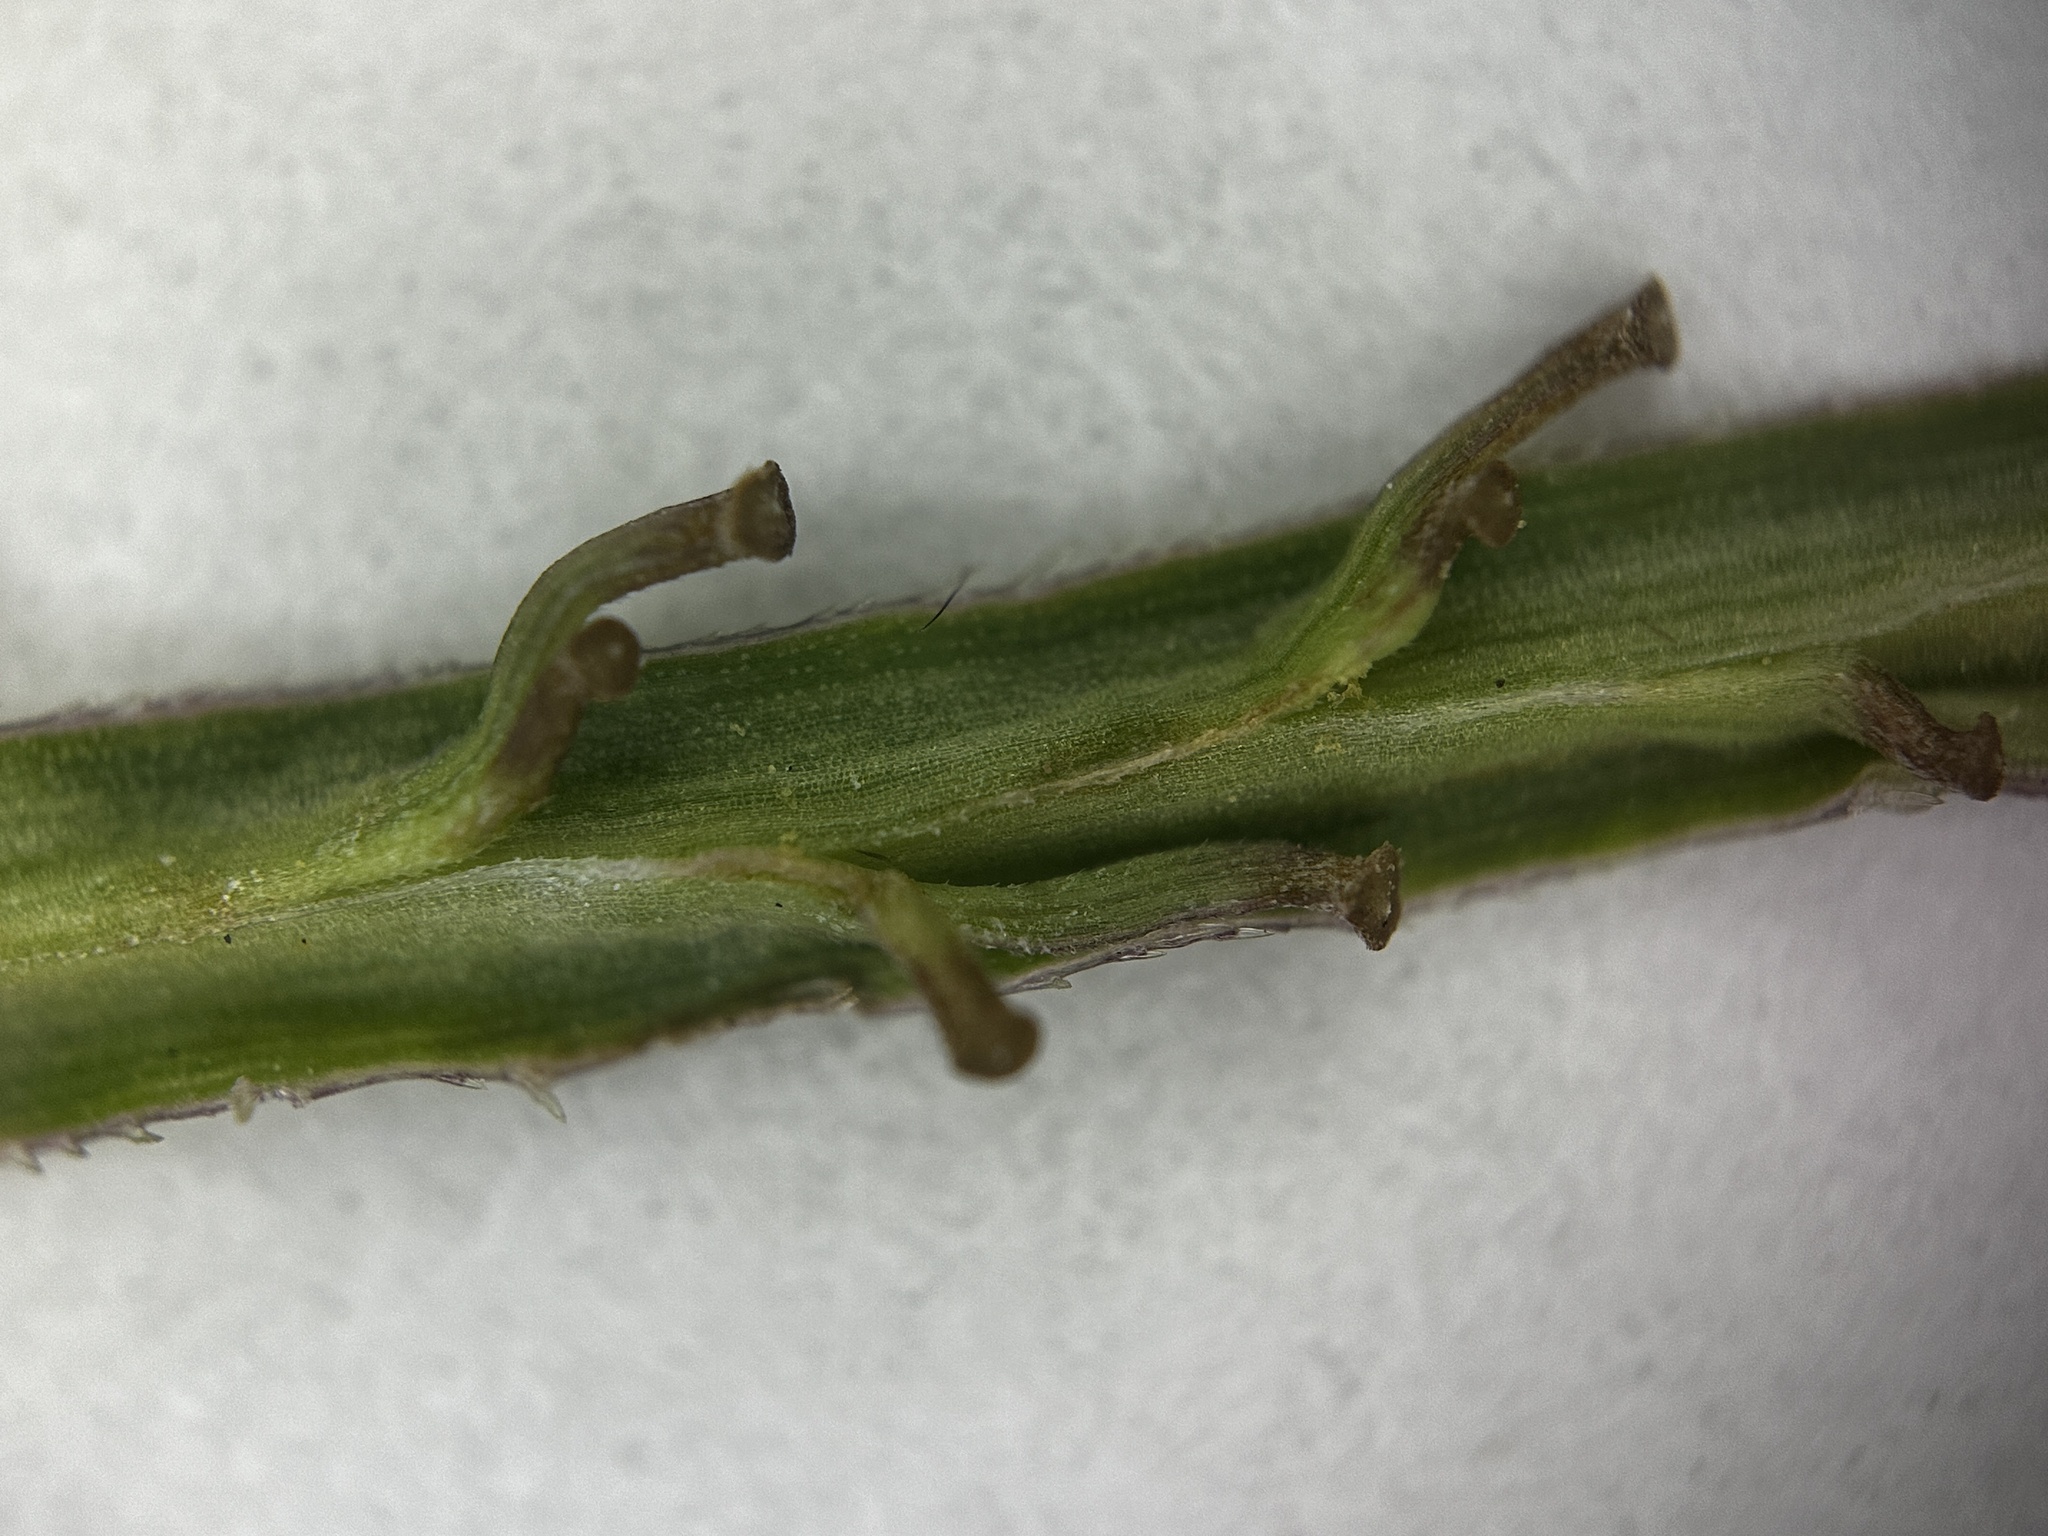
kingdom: Plantae
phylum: Tracheophyta
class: Liliopsida
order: Poales
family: Poaceae
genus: Paspalum
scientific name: Paspalum virgatum
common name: Talquezal
